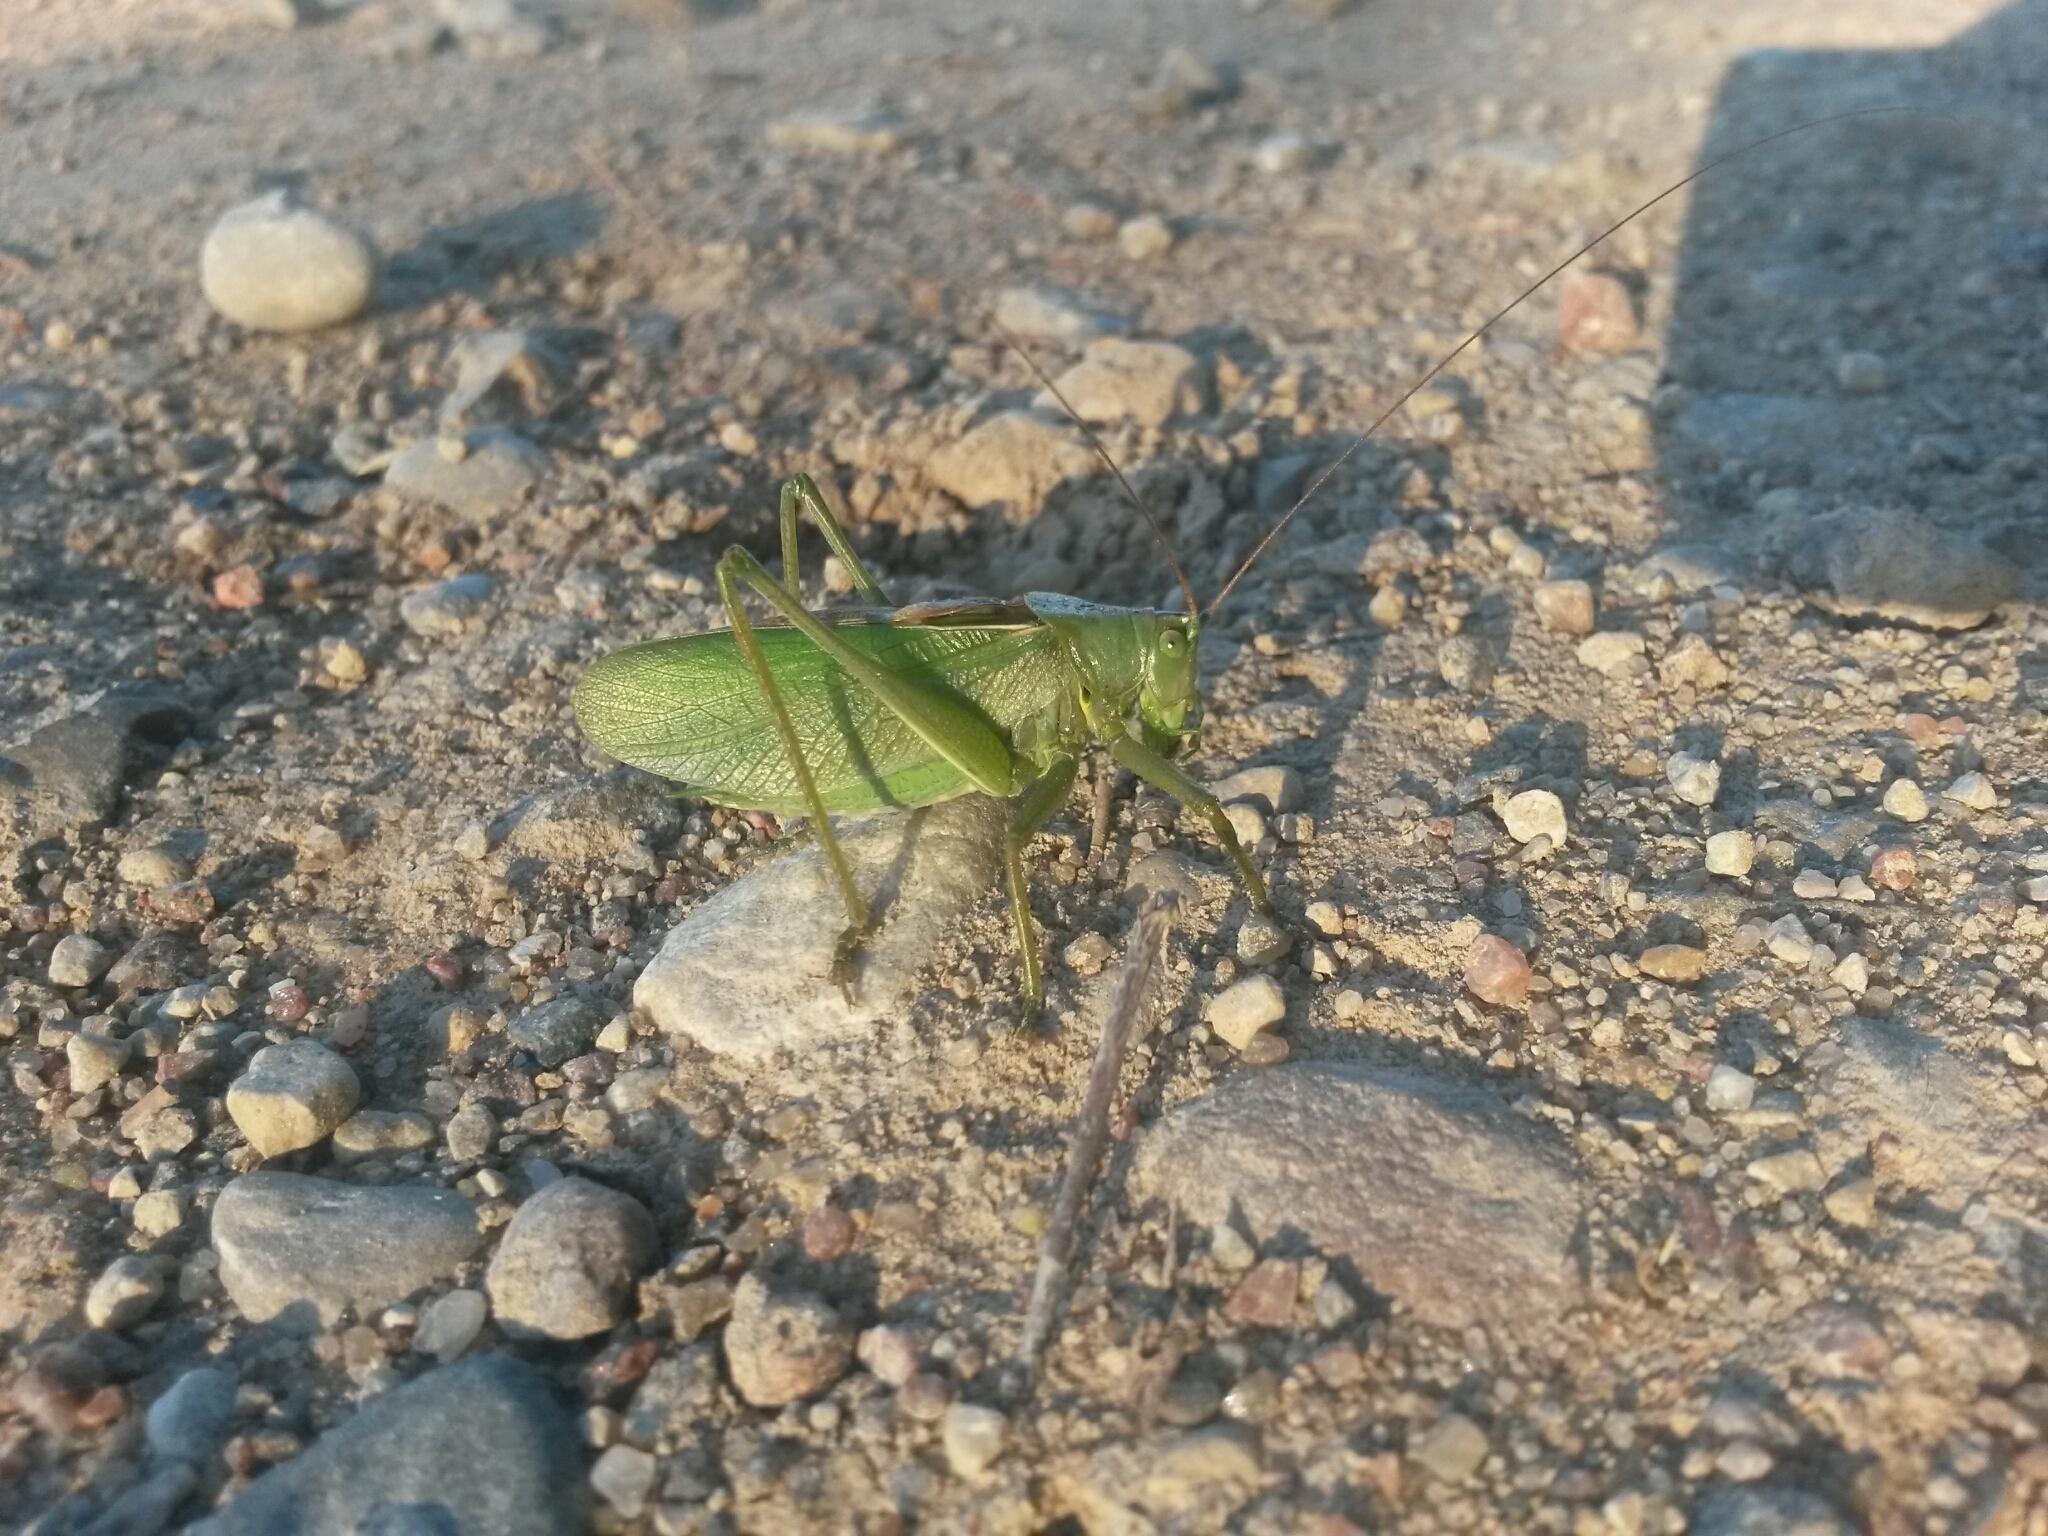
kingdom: Animalia
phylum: Arthropoda
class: Insecta
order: Orthoptera
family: Tettigoniidae
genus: Tettigonia
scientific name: Tettigonia cantans
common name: Upland green bush-cricket
